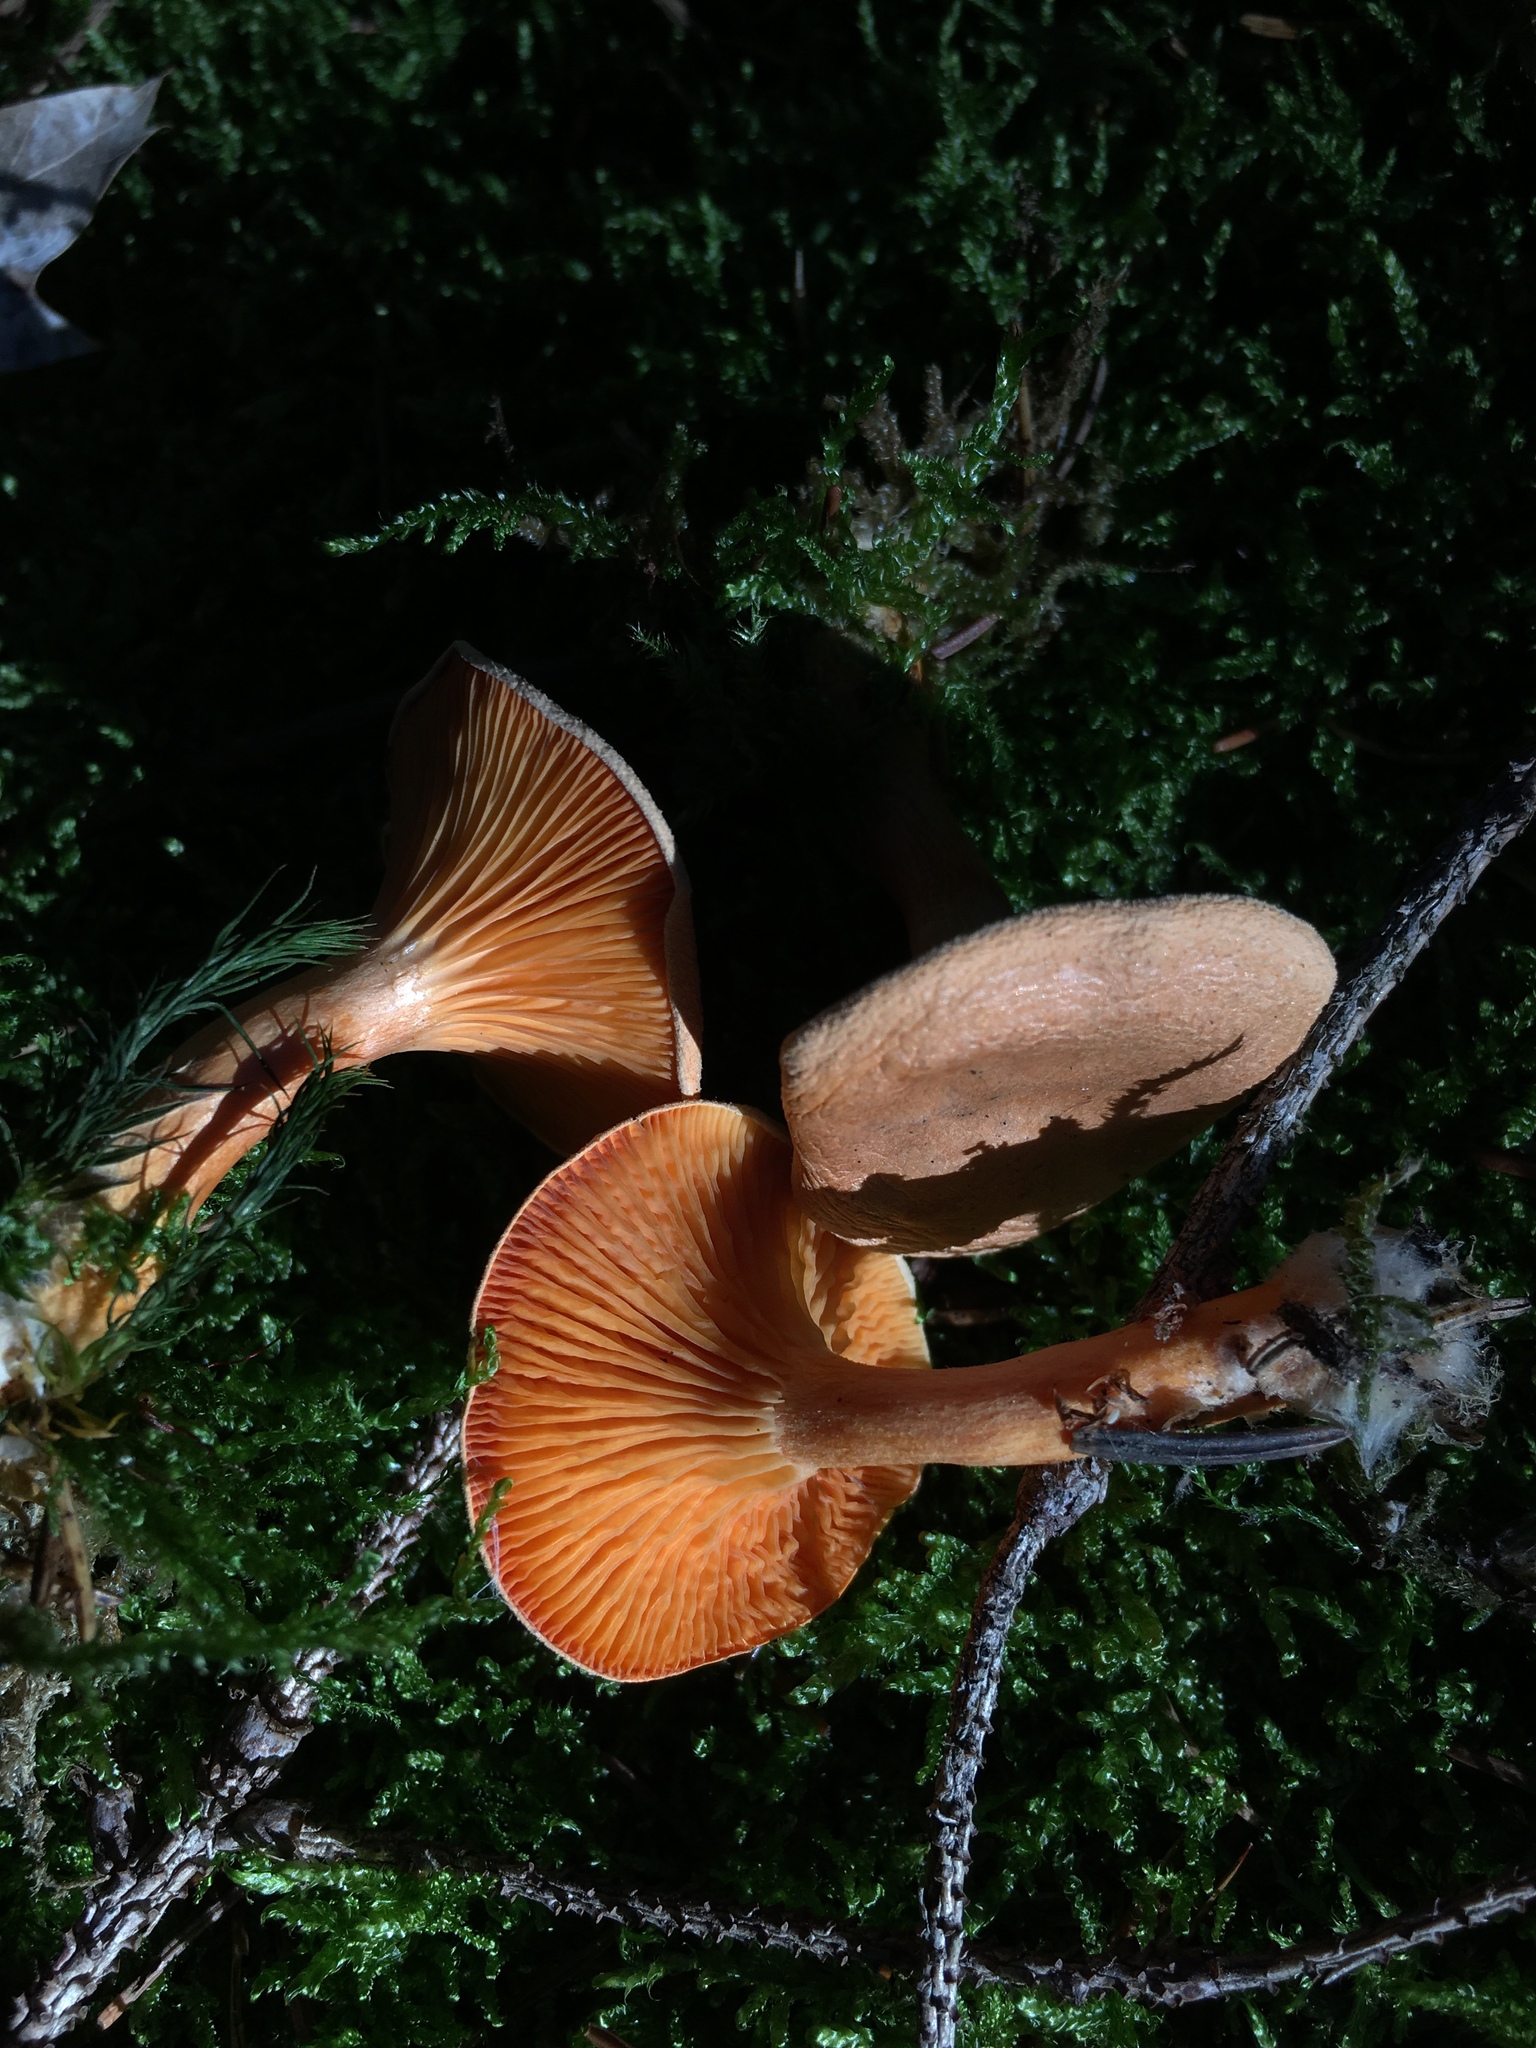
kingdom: Fungi
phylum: Basidiomycota
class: Agaricomycetes
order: Boletales
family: Hygrophoropsidaceae
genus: Hygrophoropsis
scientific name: Hygrophoropsis aurantiaca
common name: False chanterelle
